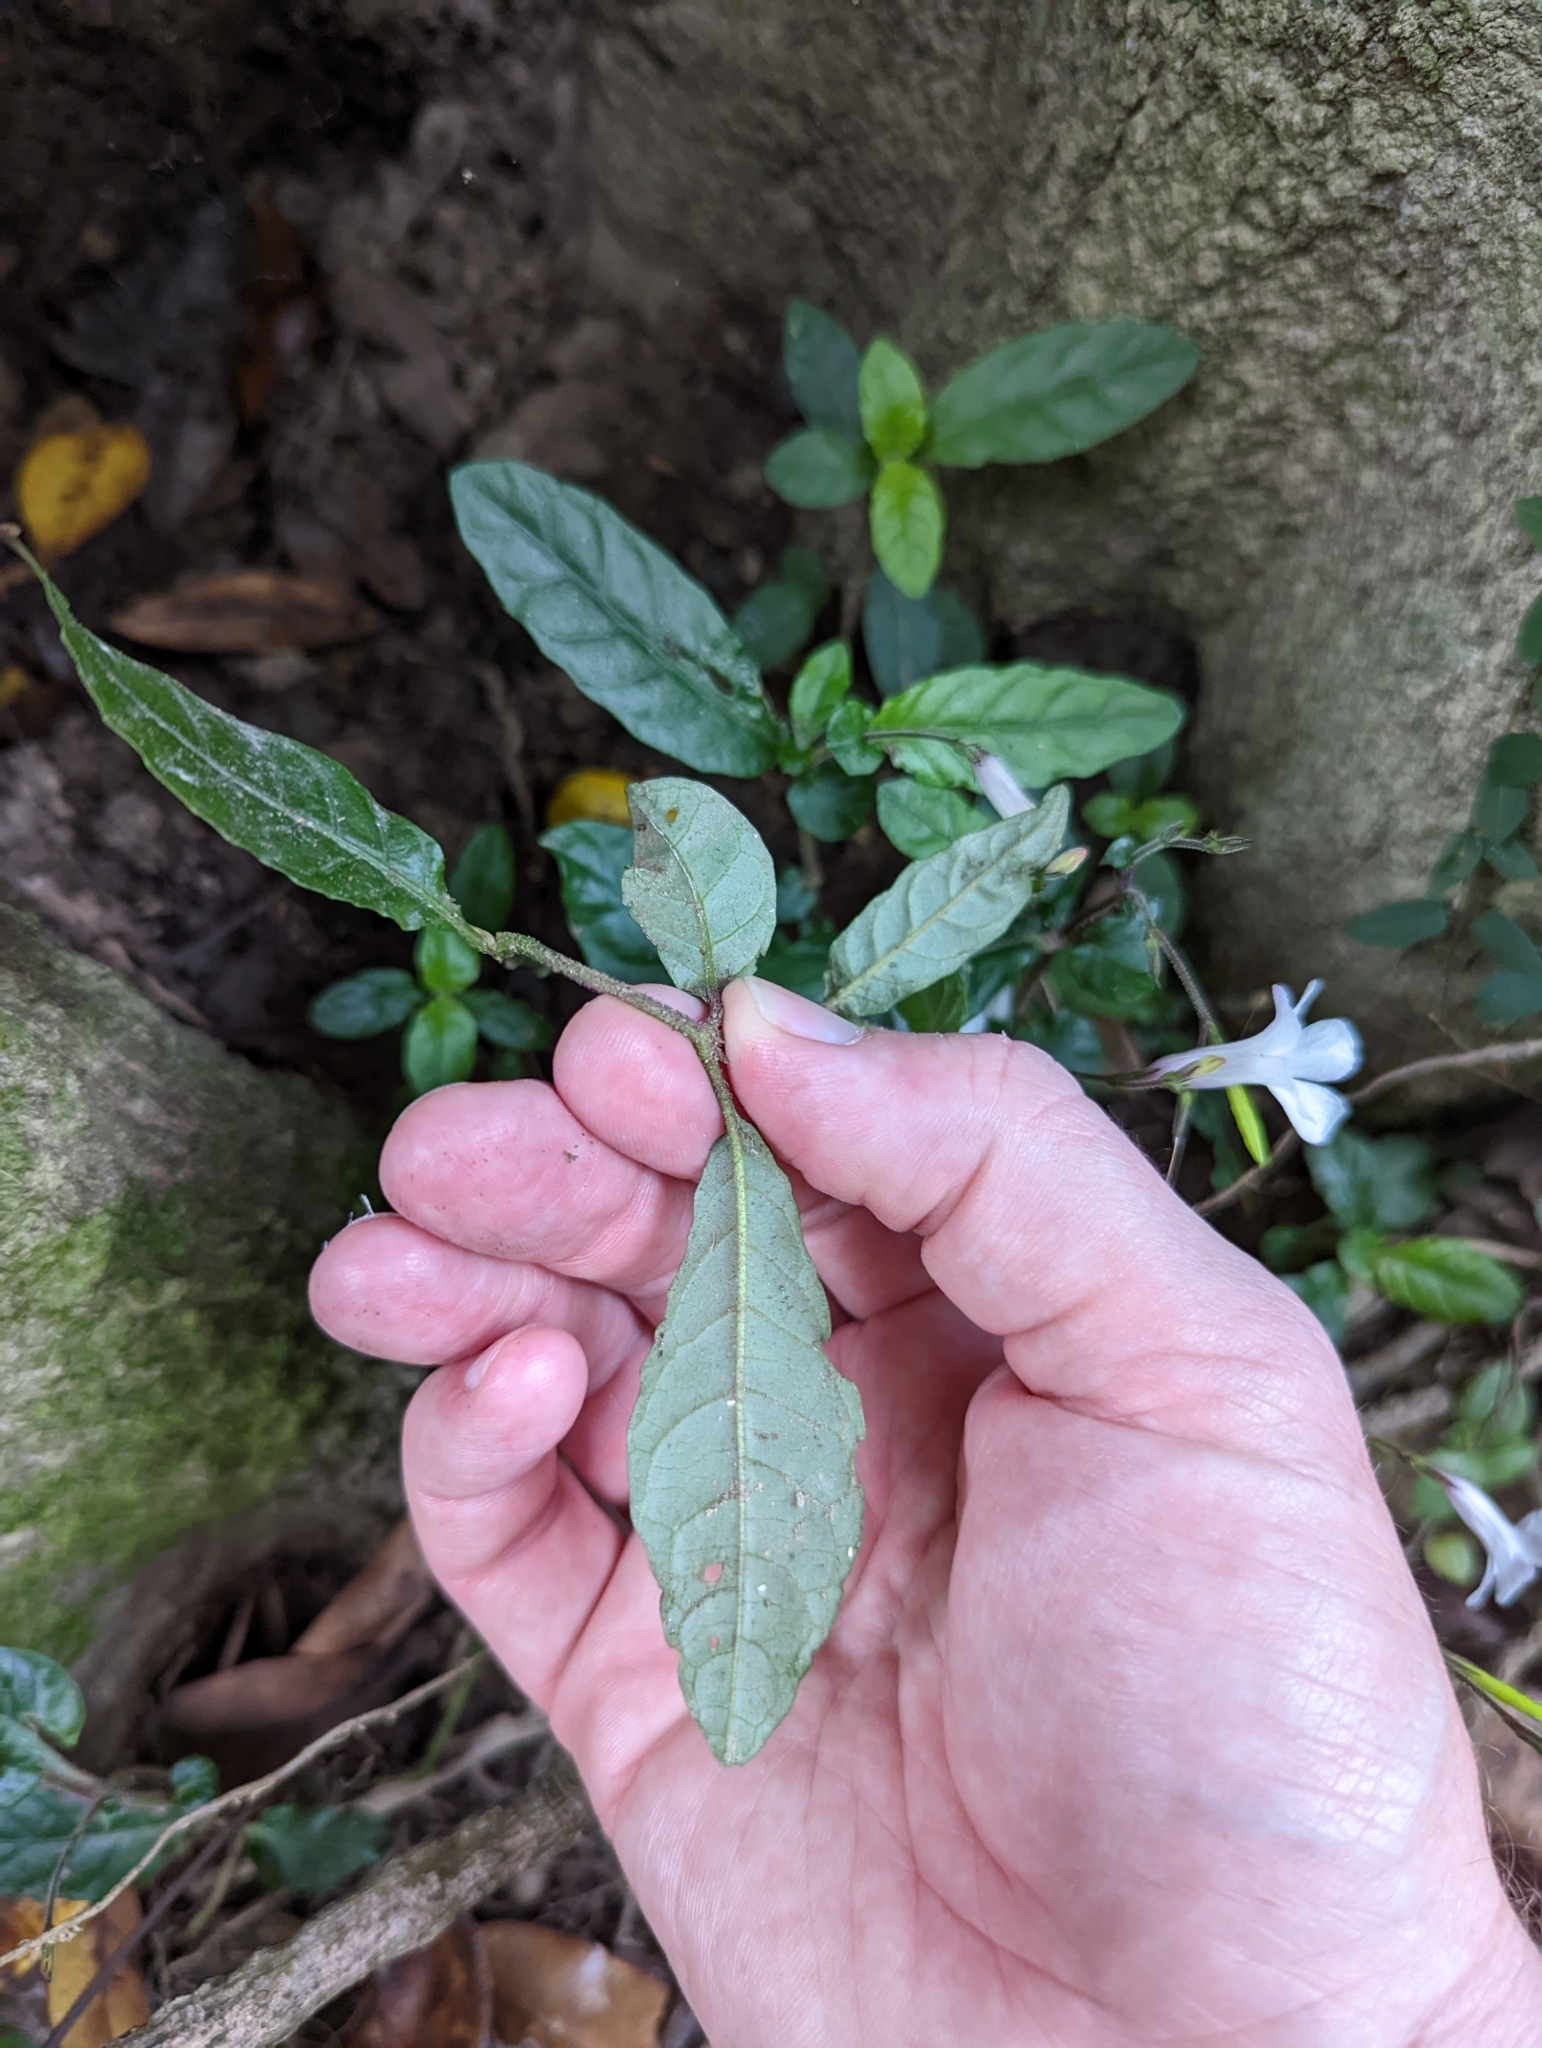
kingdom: Plantae
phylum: Tracheophyta
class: Magnoliopsida
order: Lamiales
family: Acanthaceae
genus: Brunoniella
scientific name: Brunoniella spiciflora
